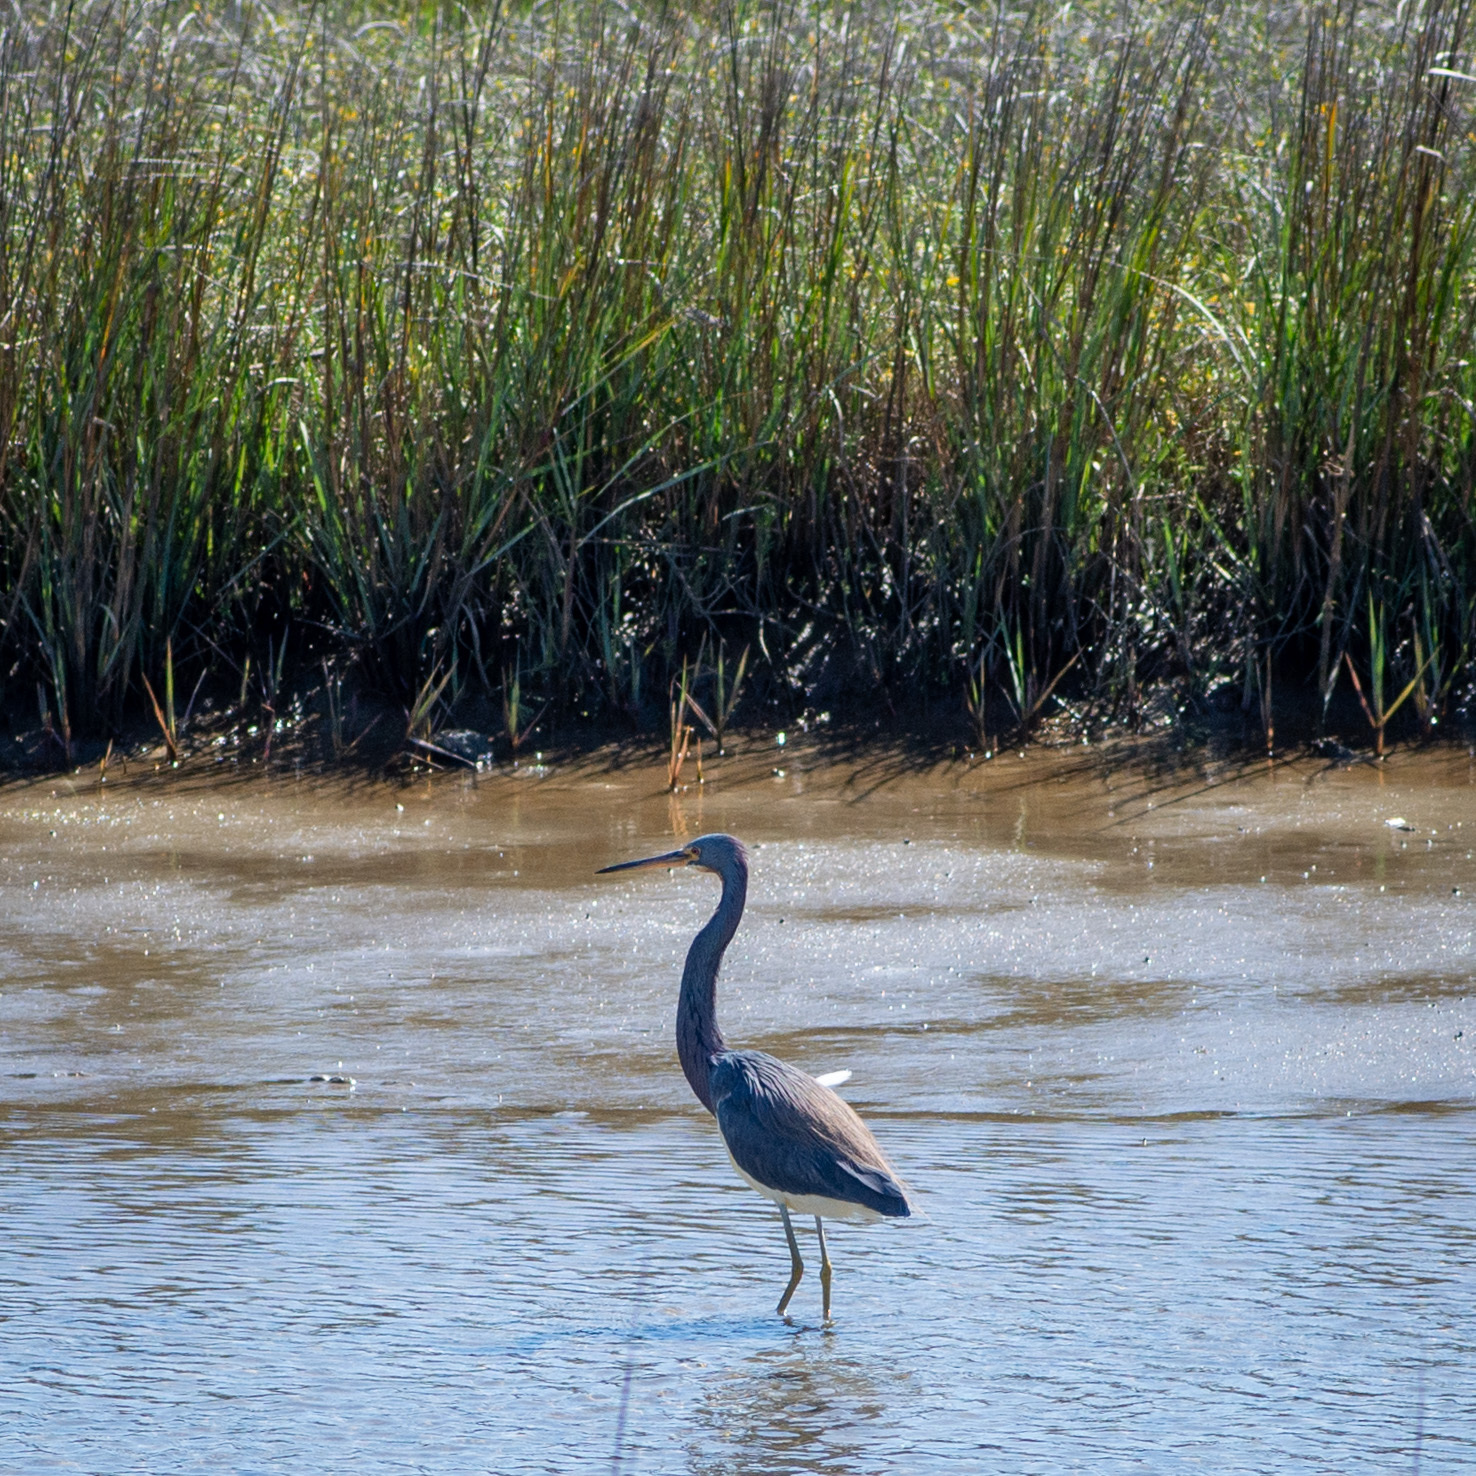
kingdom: Animalia
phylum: Chordata
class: Aves
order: Pelecaniformes
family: Ardeidae
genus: Egretta
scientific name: Egretta tricolor
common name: Tricolored heron
